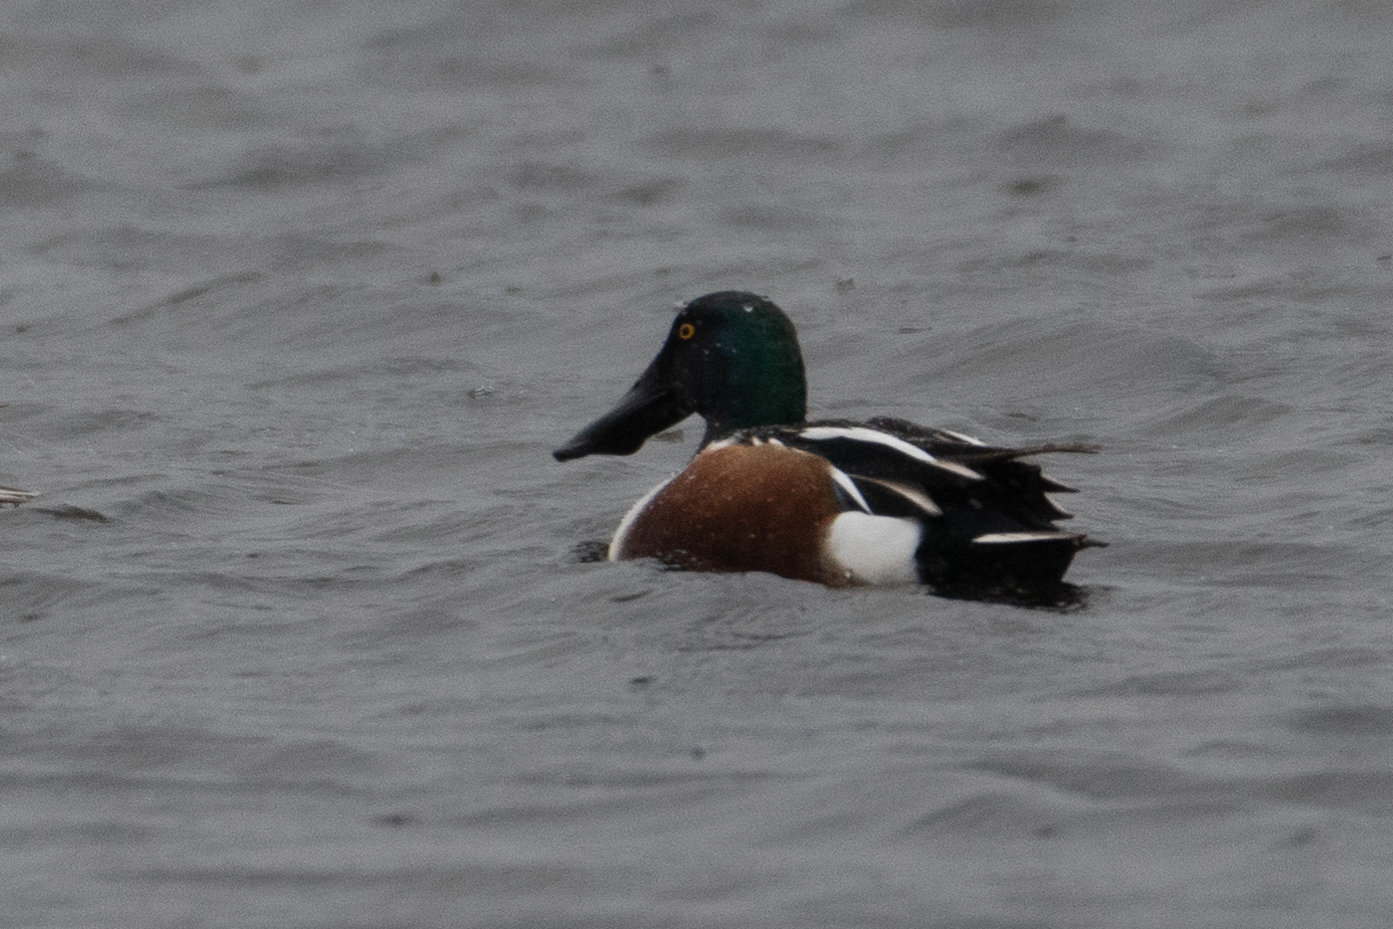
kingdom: Animalia
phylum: Chordata
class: Aves
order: Anseriformes
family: Anatidae
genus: Spatula
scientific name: Spatula clypeata
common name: Northern shoveler
